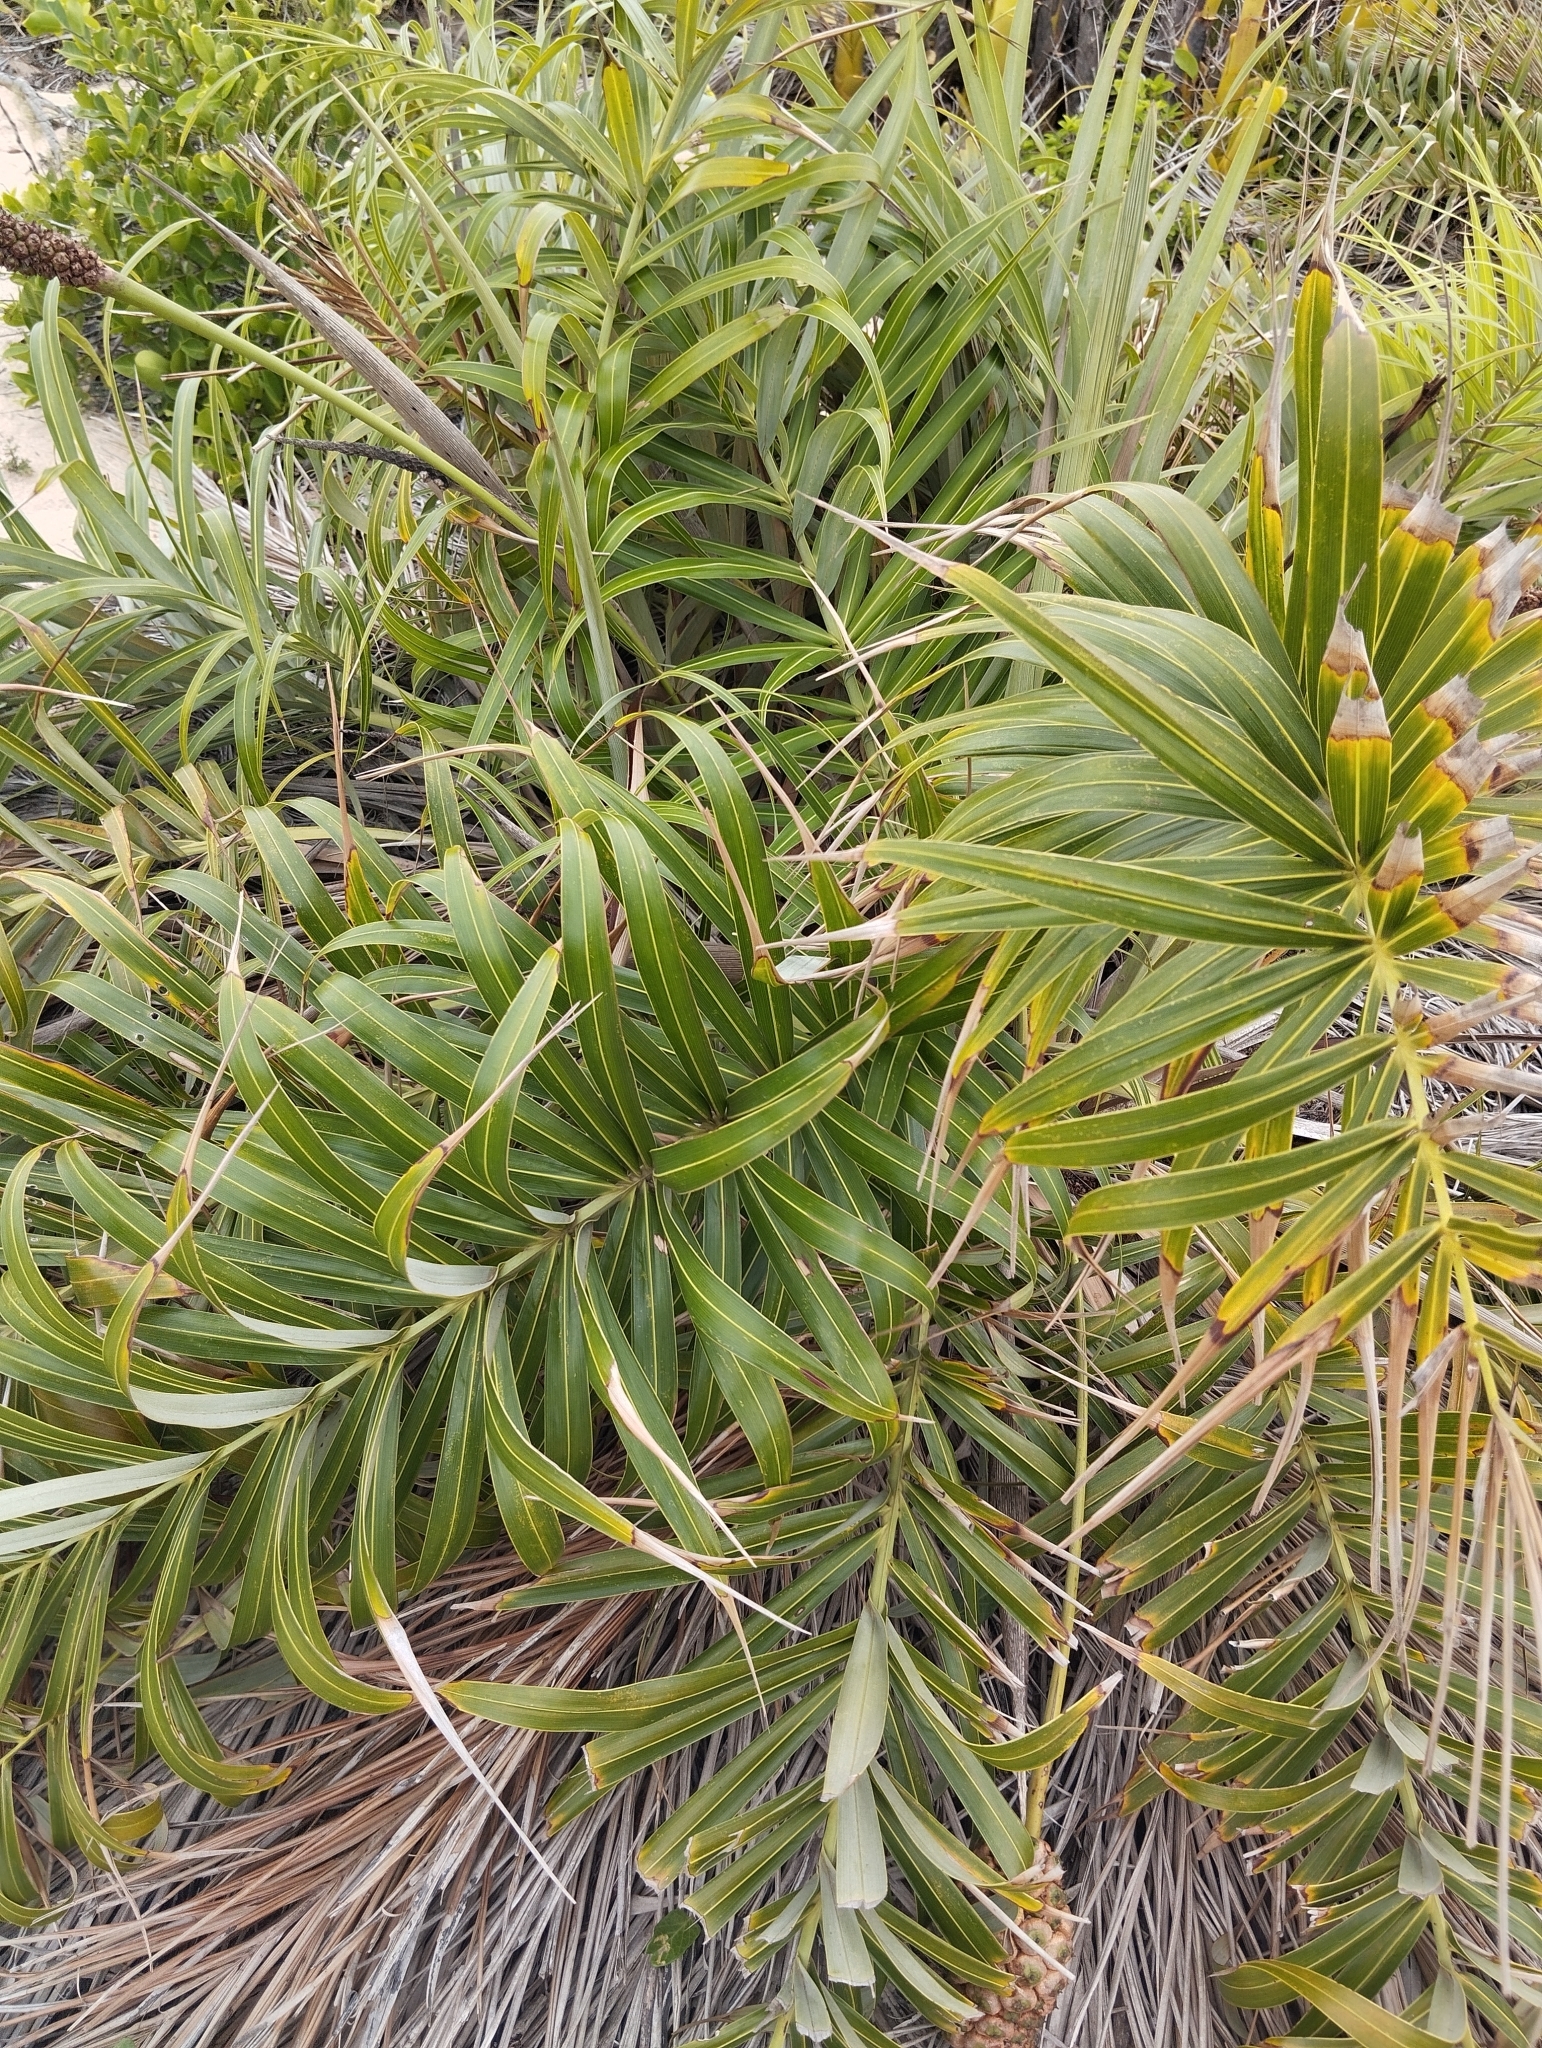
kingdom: Plantae
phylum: Tracheophyta
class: Liliopsida
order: Arecales
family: Arecaceae
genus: Allagoptera
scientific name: Allagoptera arenaria
